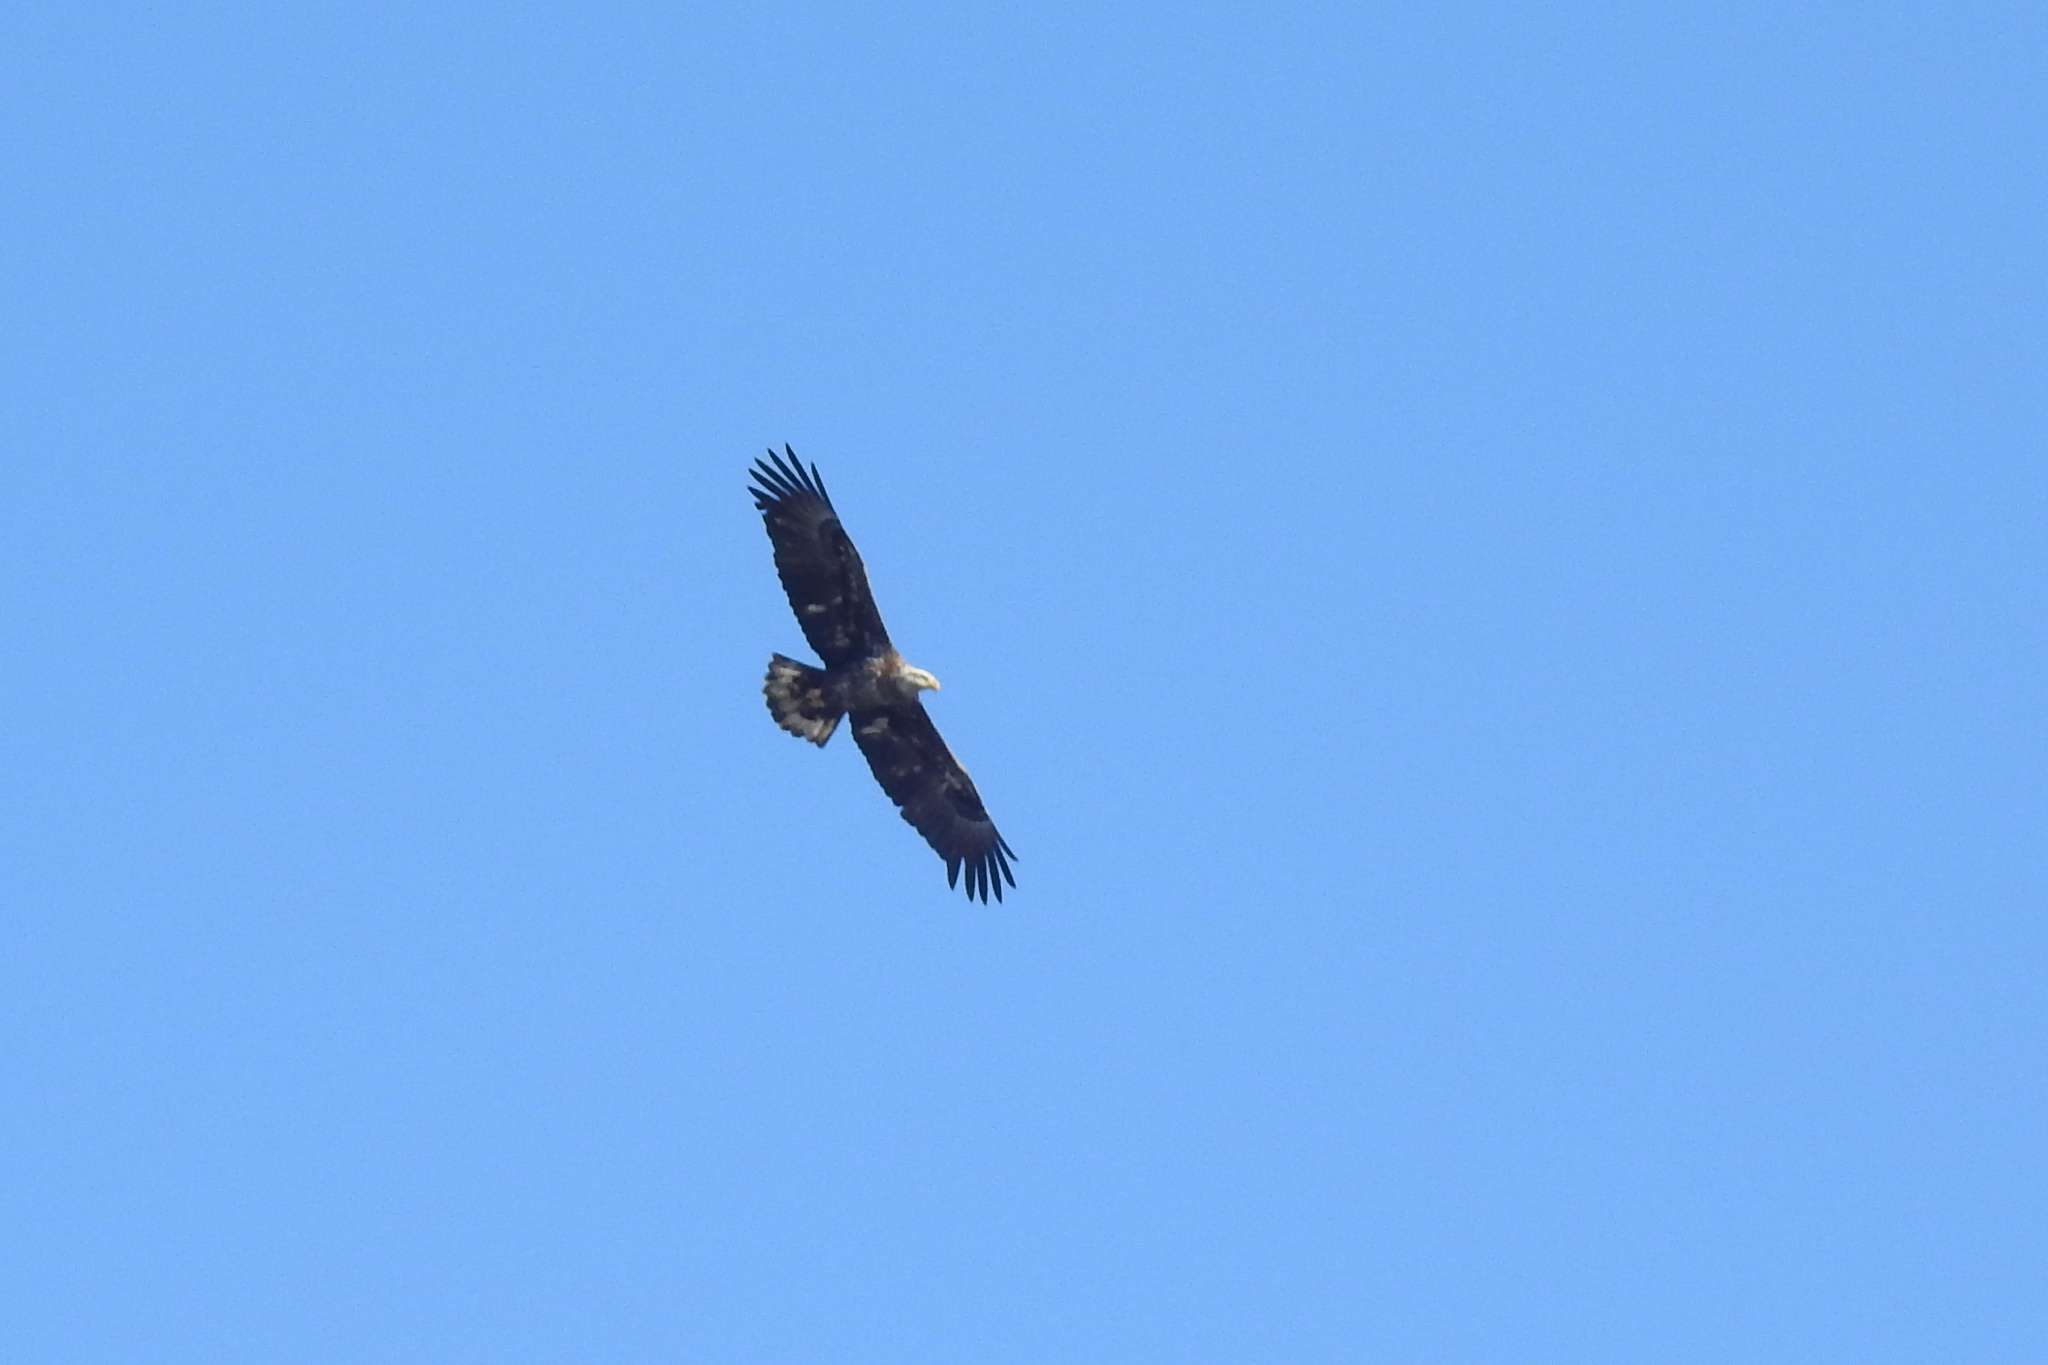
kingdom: Animalia
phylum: Chordata
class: Aves
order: Accipitriformes
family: Accipitridae
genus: Haliaeetus
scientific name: Haliaeetus leucocephalus
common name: Bald eagle
